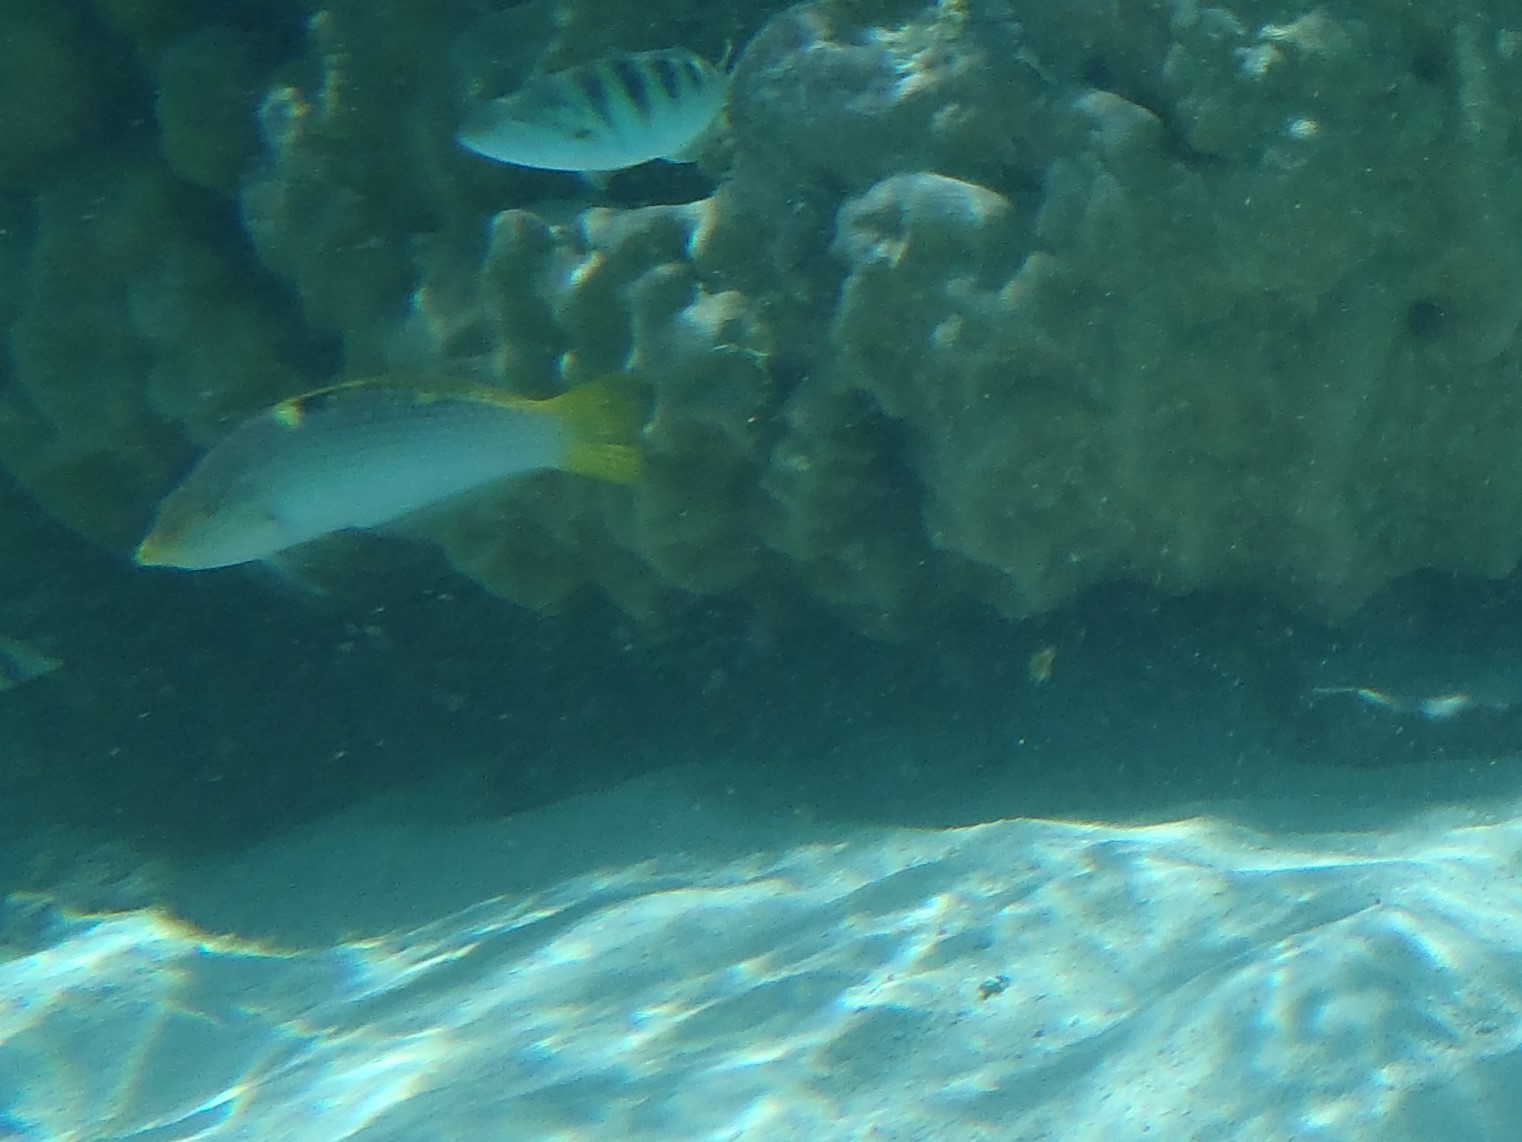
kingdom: Animalia
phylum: Chordata
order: Perciformes
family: Labridae
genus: Halichoeres
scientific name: Halichoeres hortulanus
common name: Checkerboard wrasse
